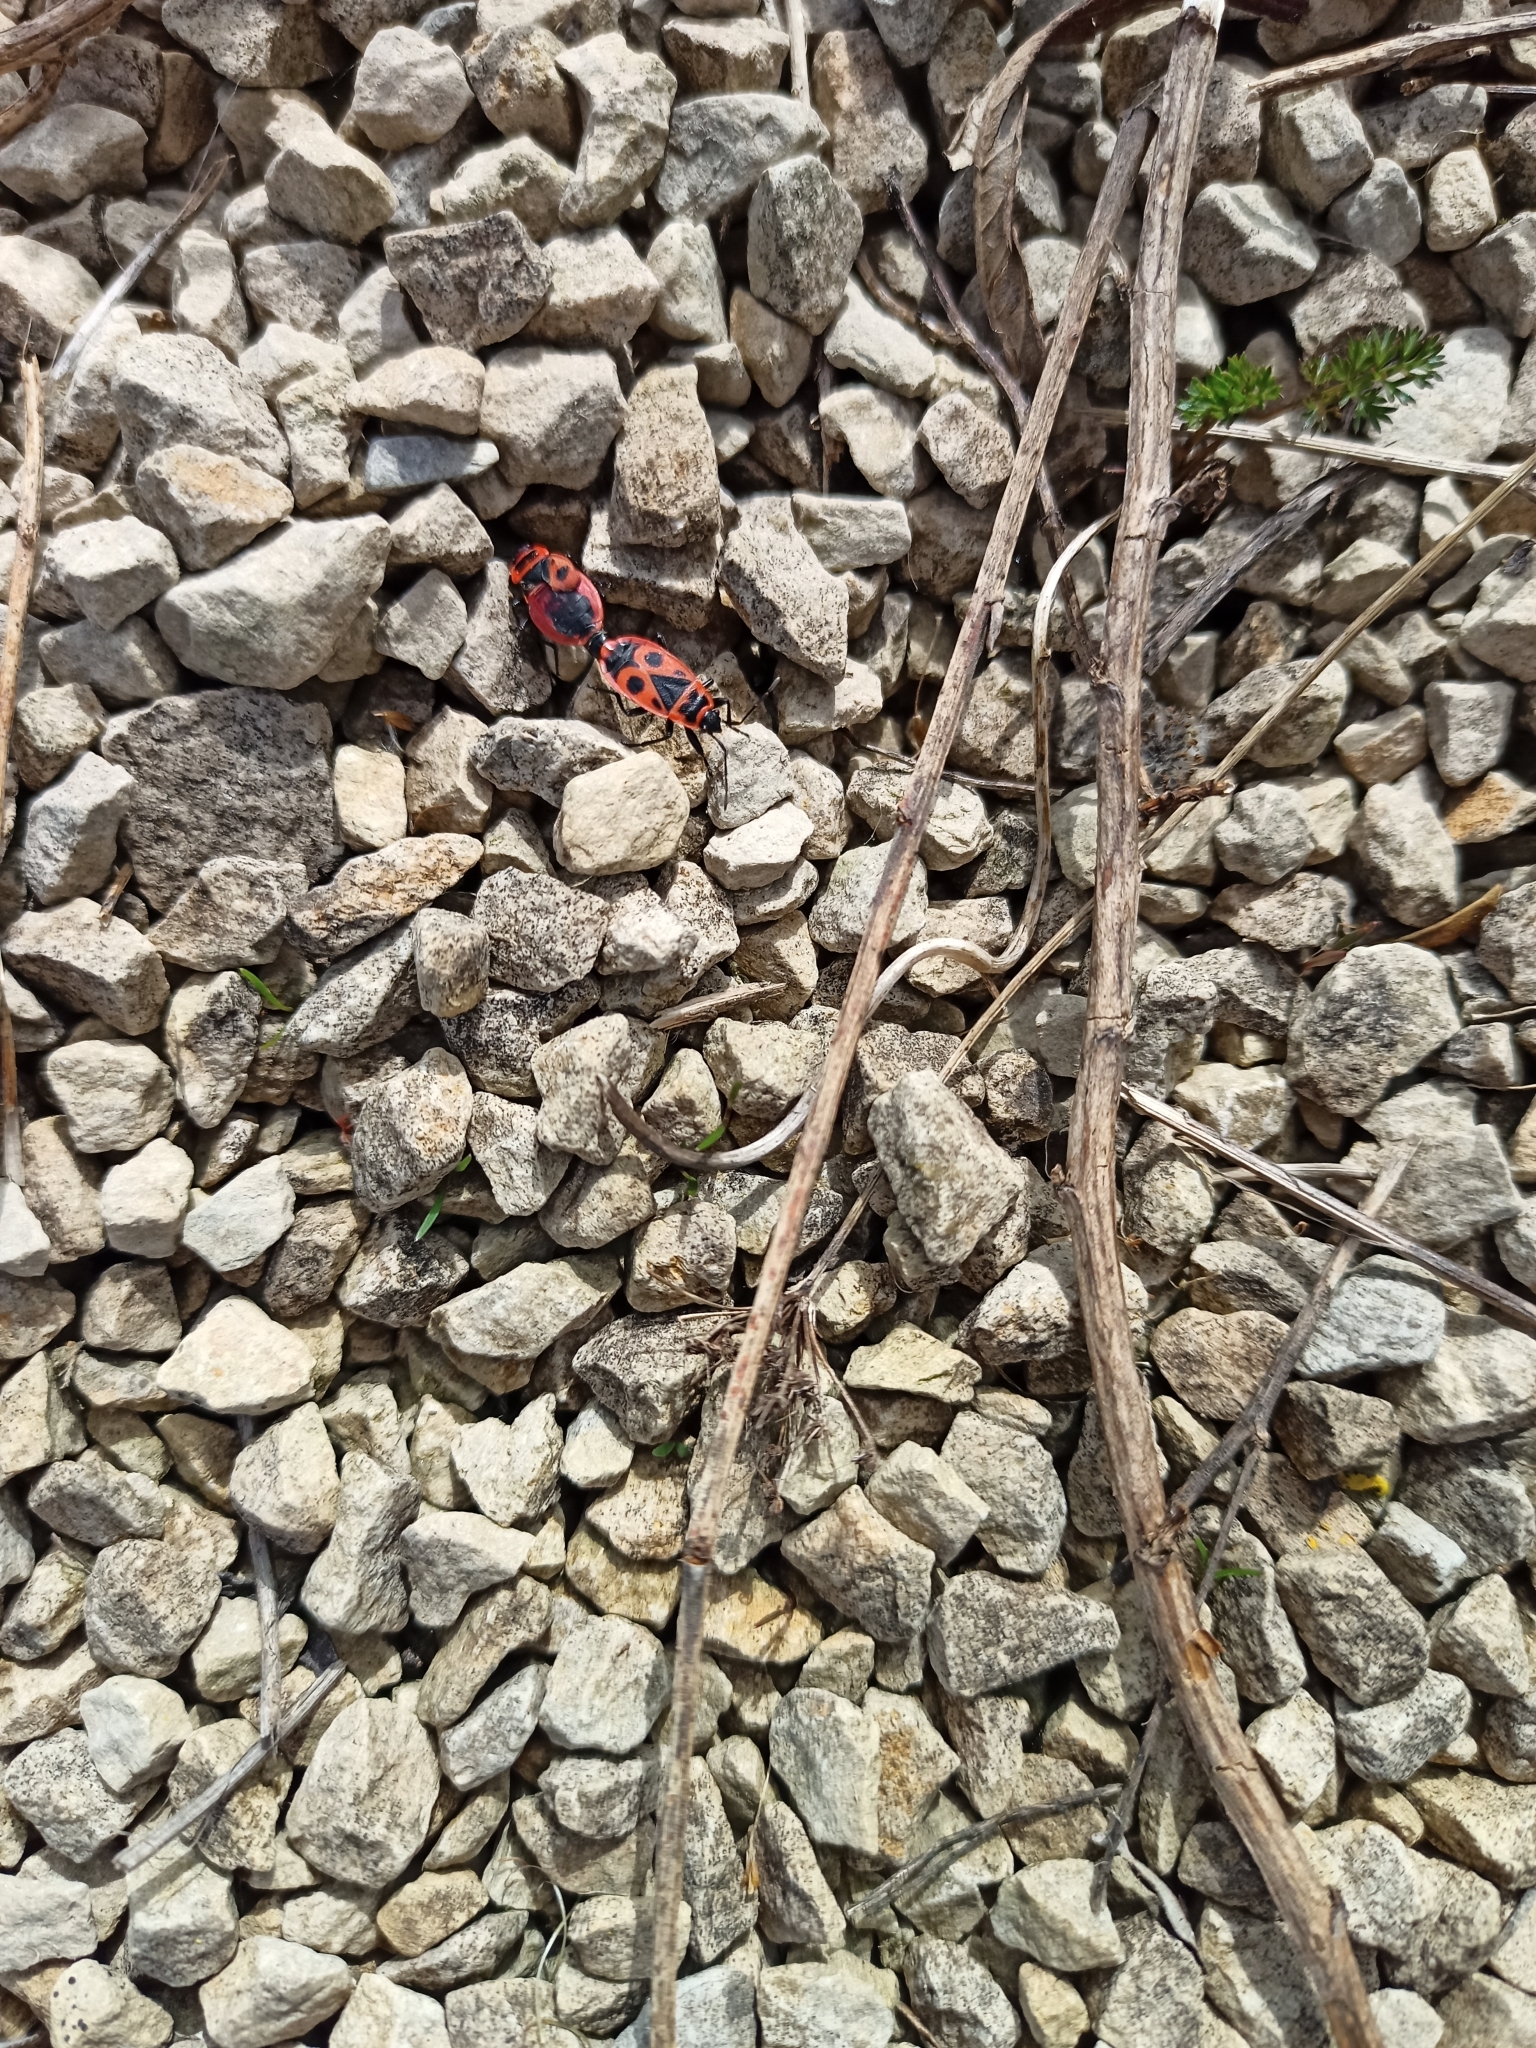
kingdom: Animalia
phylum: Arthropoda
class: Insecta
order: Hemiptera
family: Pyrrhocoridae
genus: Pyrrhocoris
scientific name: Pyrrhocoris apterus
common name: Firebug
